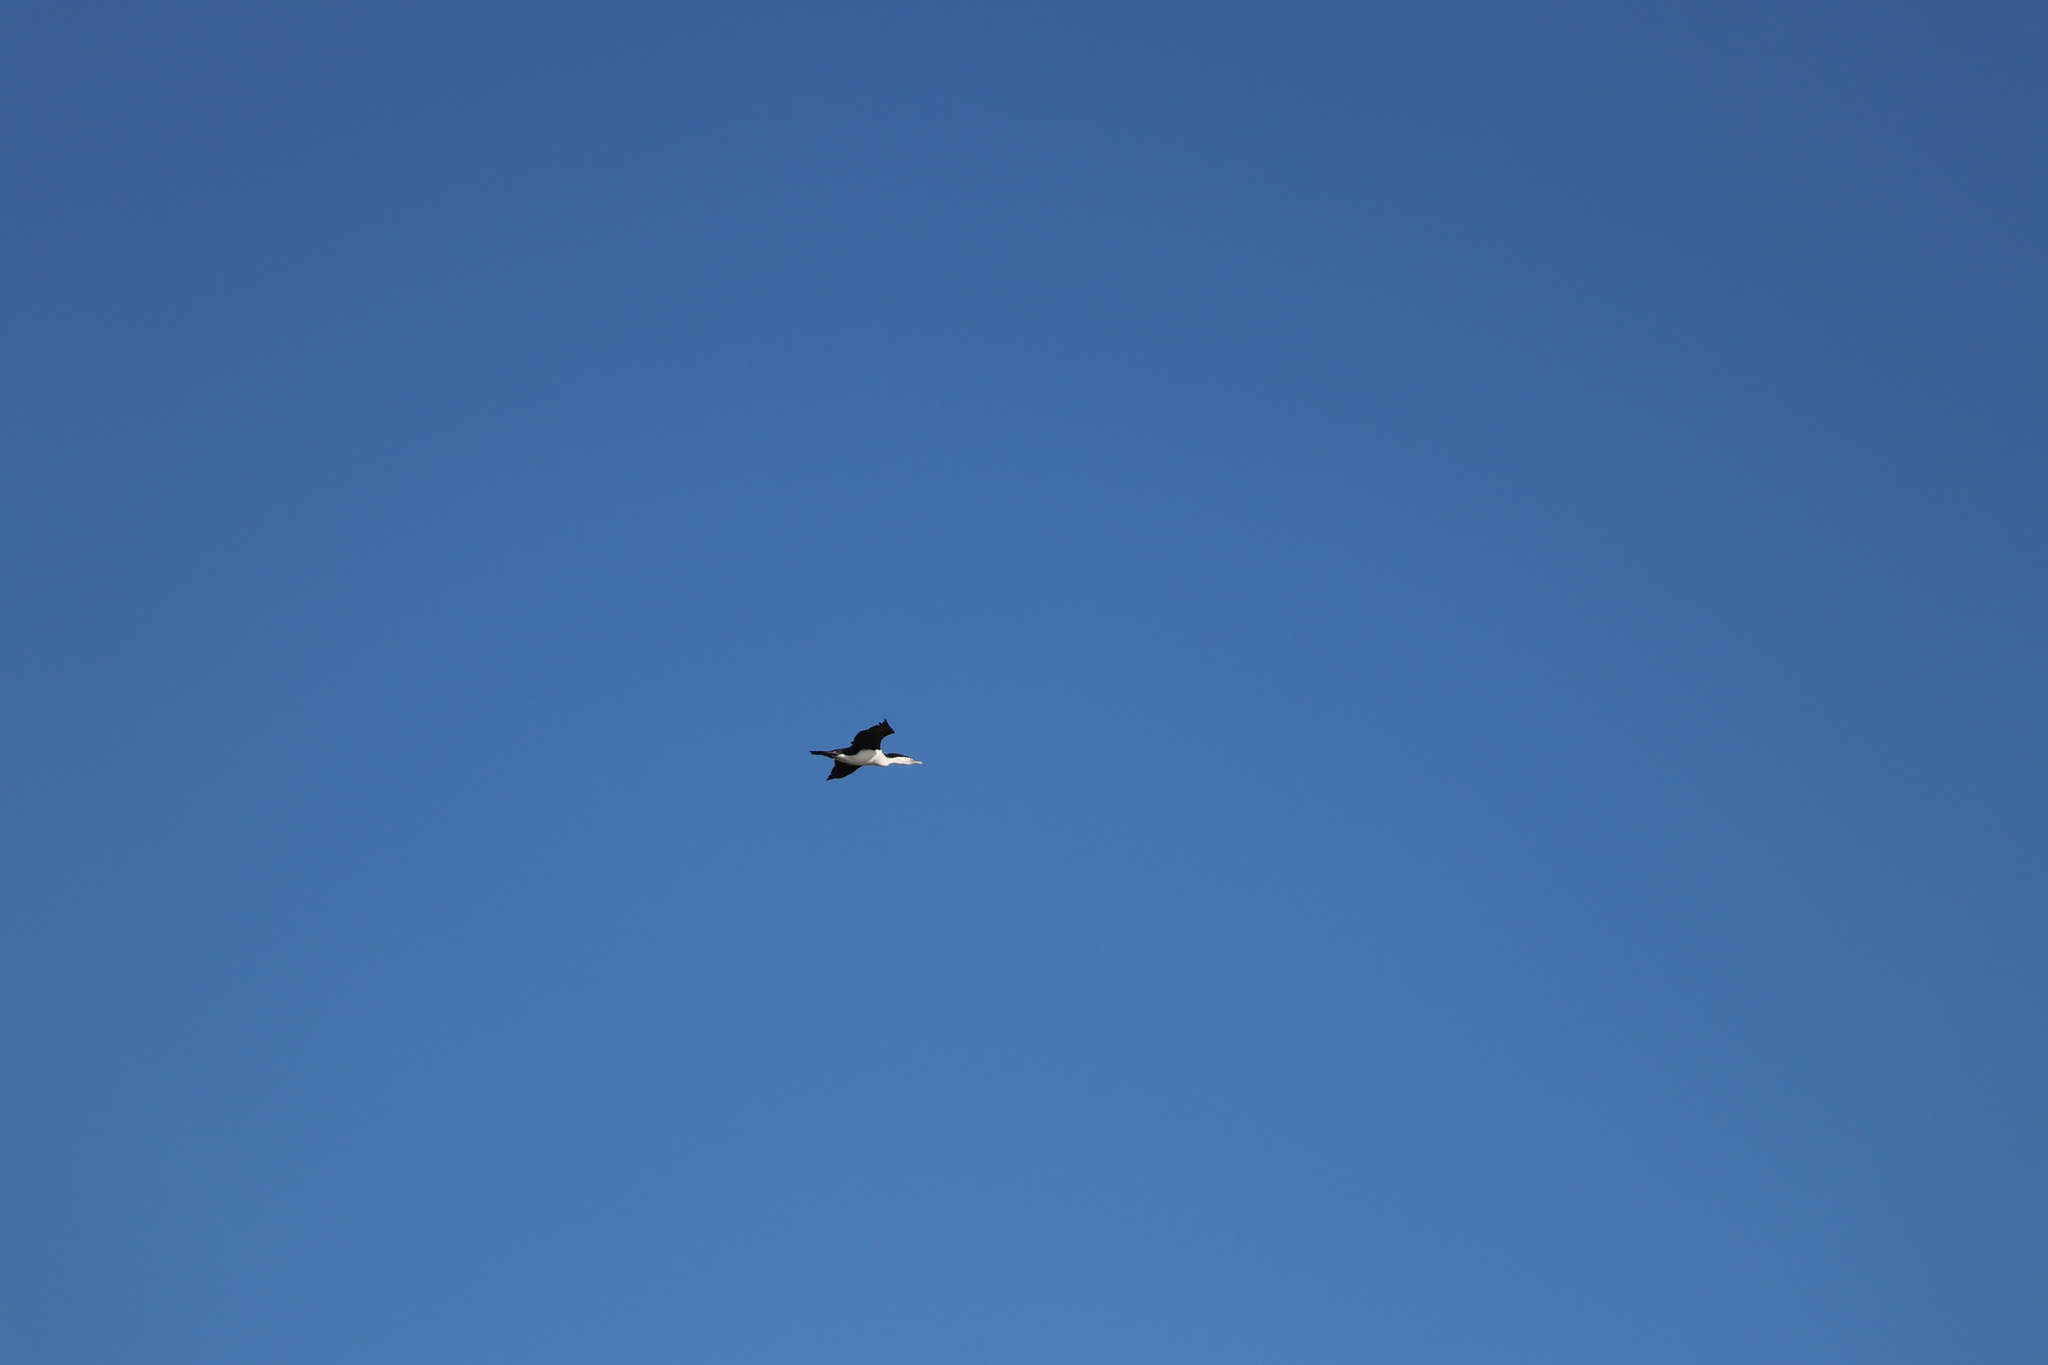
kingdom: Animalia
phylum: Chordata
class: Aves
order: Suliformes
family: Phalacrocoracidae
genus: Phalacrocorax
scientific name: Phalacrocorax varius
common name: Pied cormorant
